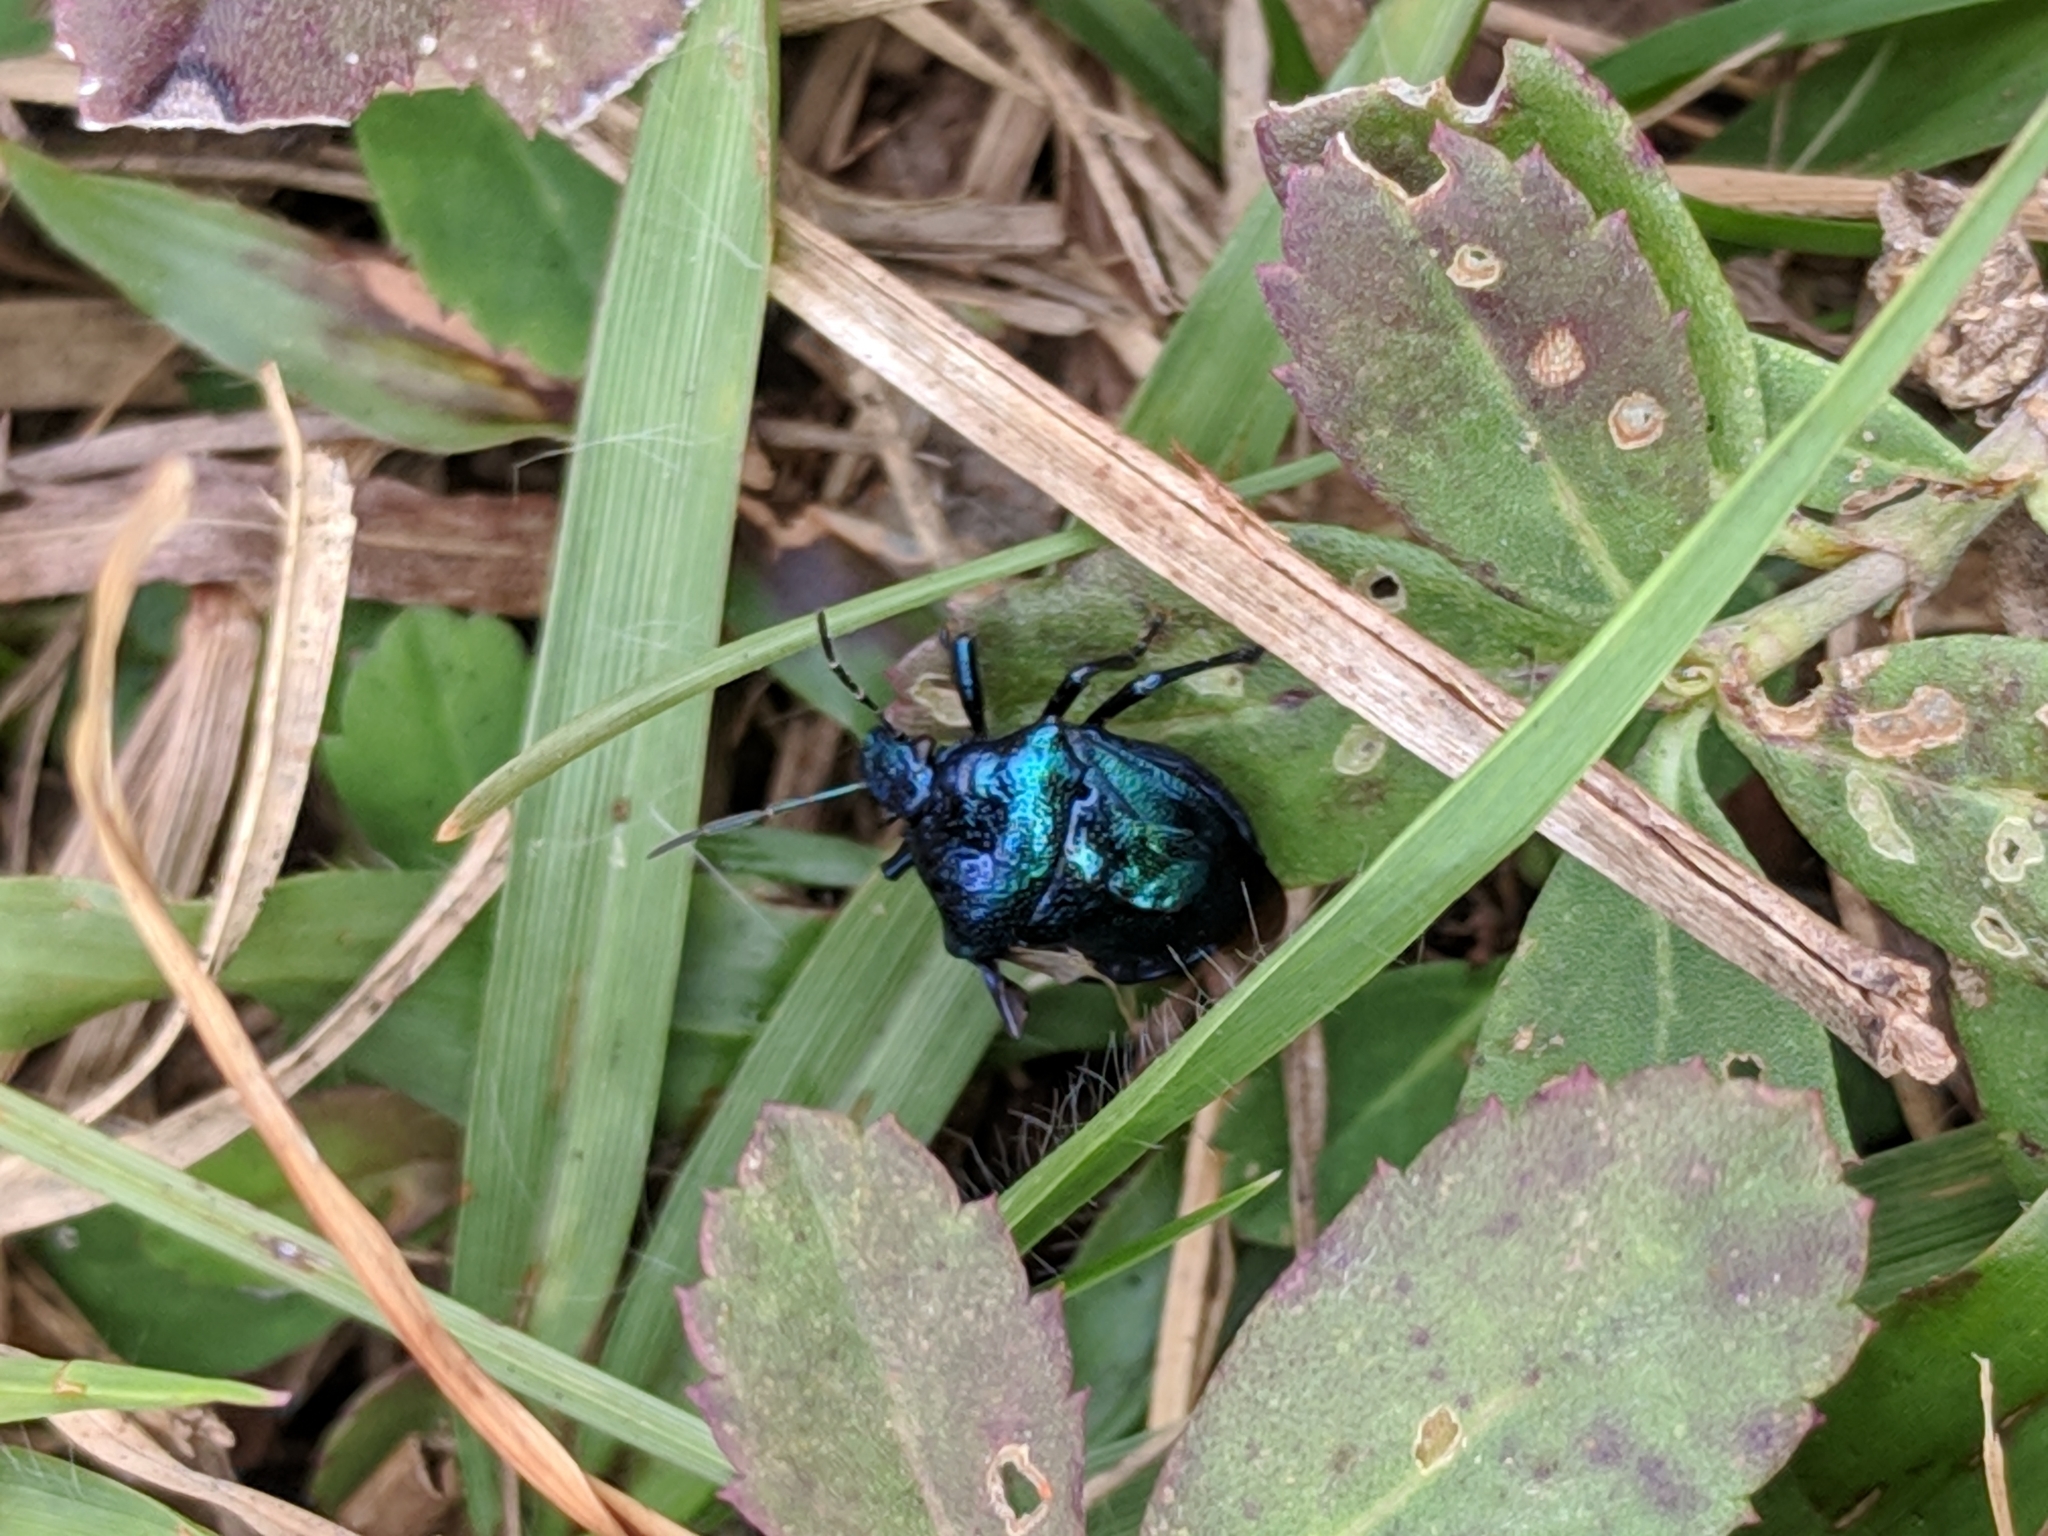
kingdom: Animalia
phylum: Arthropoda
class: Insecta
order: Hemiptera
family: Pentatomidae
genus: Stiretrus
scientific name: Stiretrus anchorago
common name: Anchor stink bug
